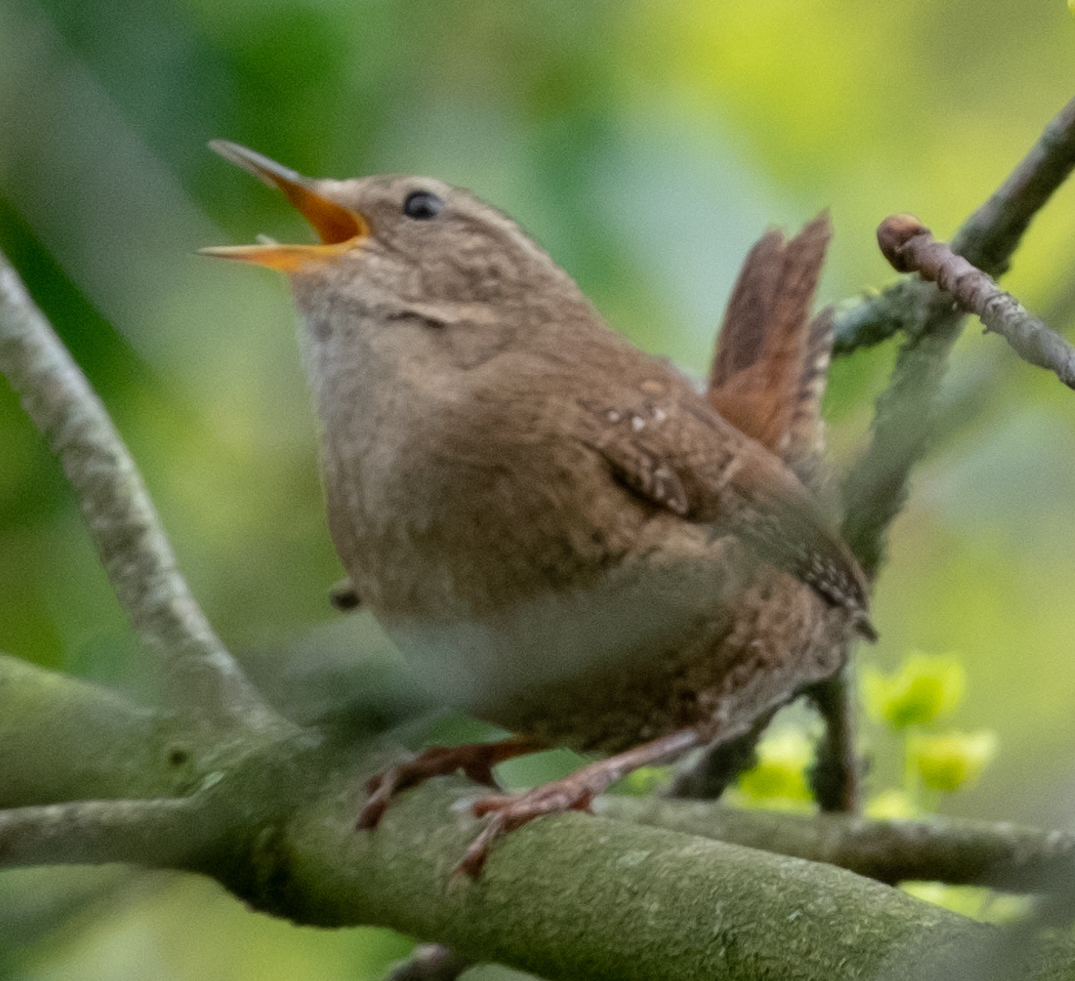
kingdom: Animalia
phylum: Chordata
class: Aves
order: Passeriformes
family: Troglodytidae
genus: Troglodytes
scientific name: Troglodytes troglodytes
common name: Eurasian wren
